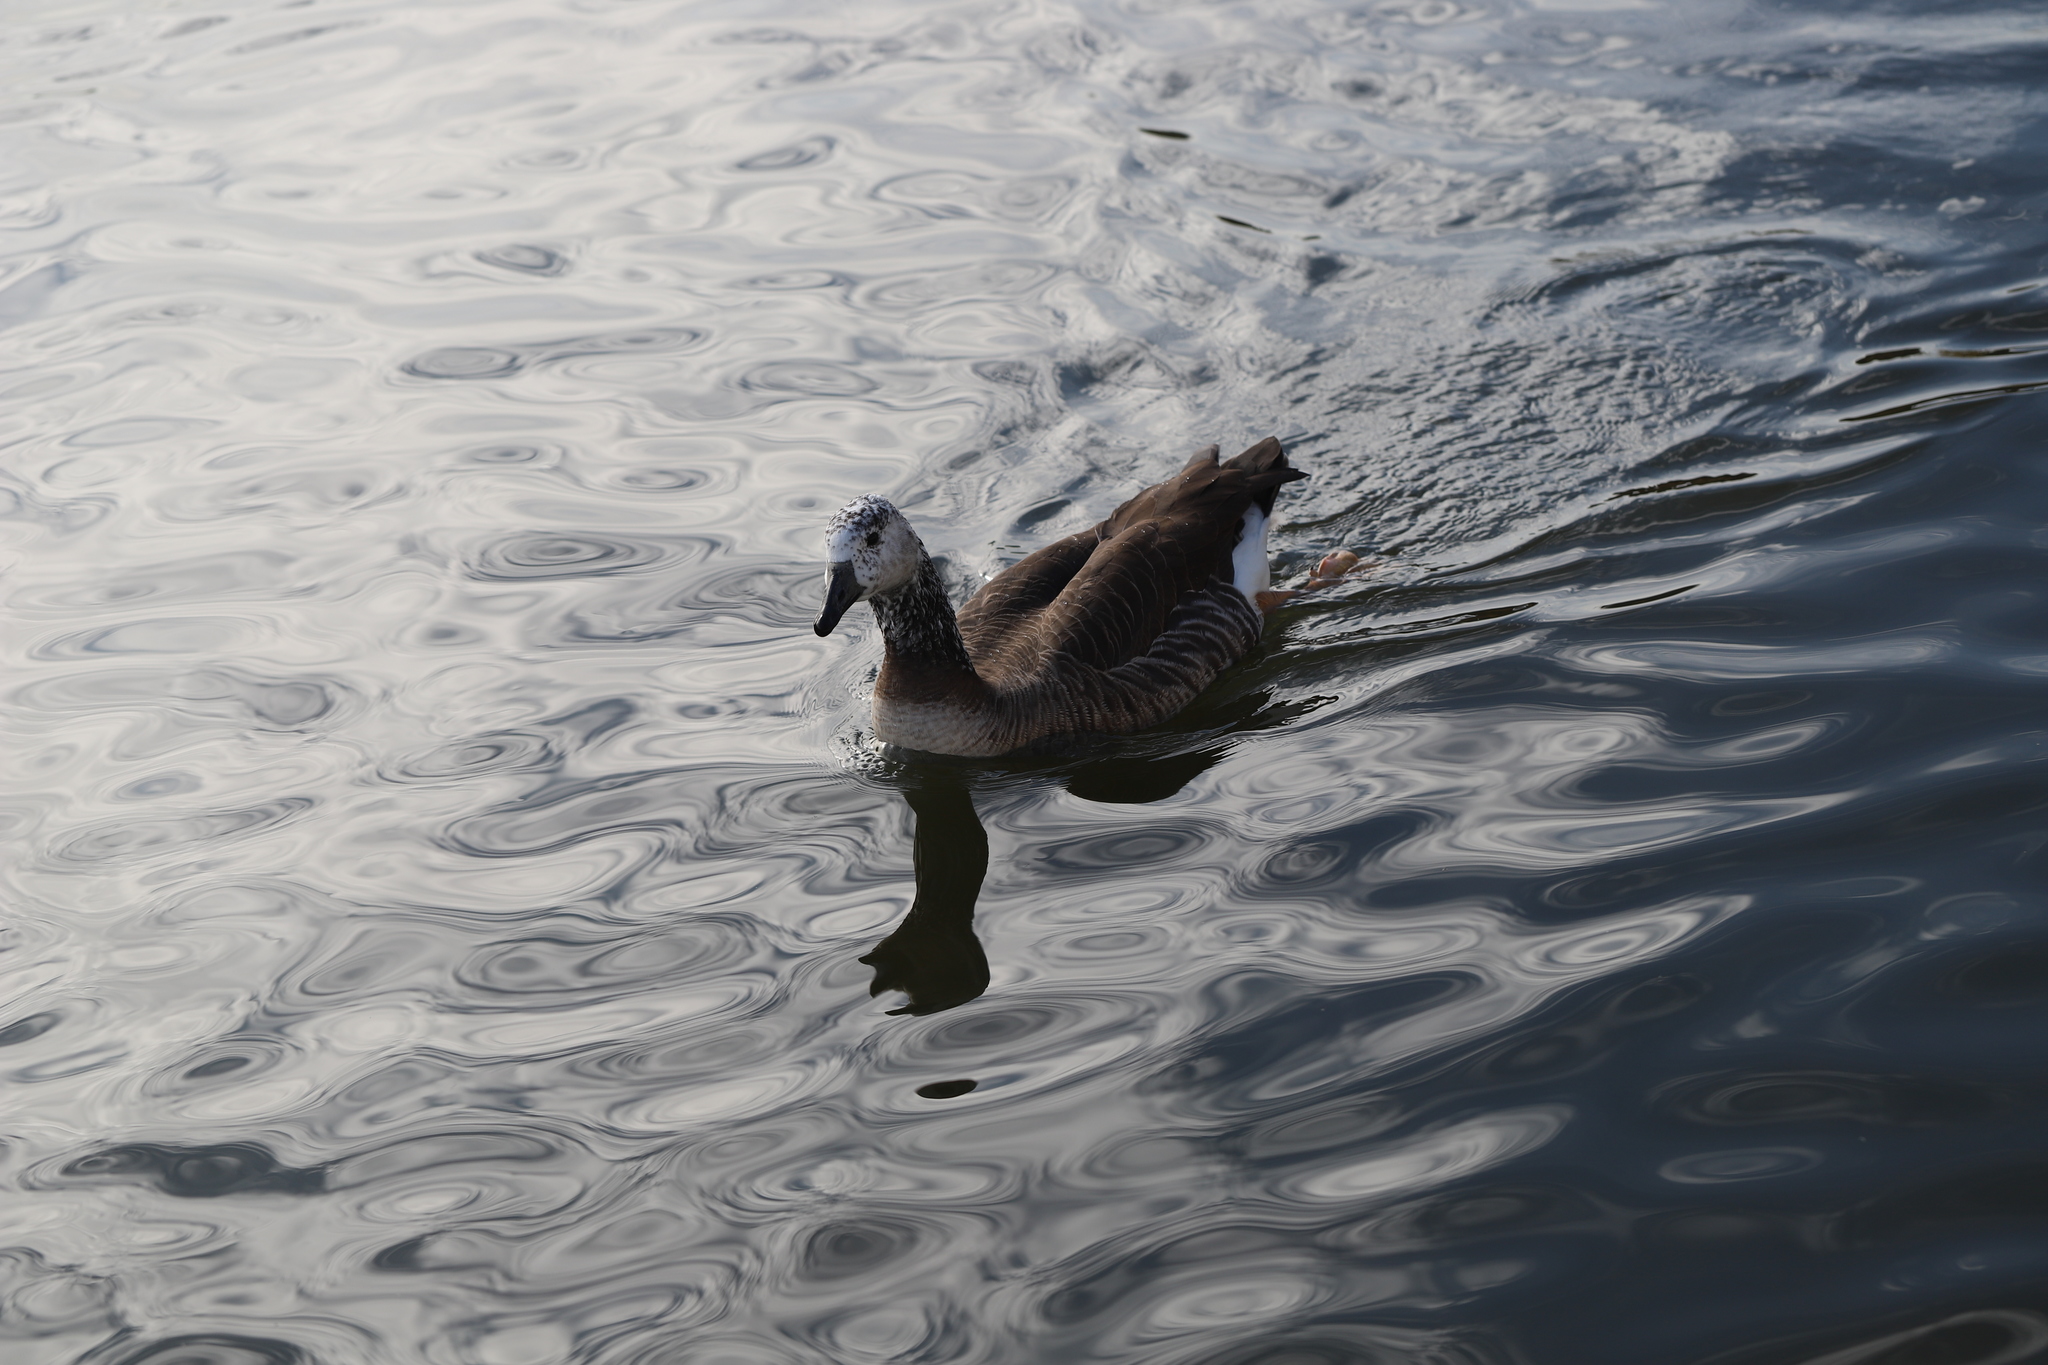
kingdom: Animalia
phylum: Chordata
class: Aves
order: Anseriformes
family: Anatidae
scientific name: Anatidae
